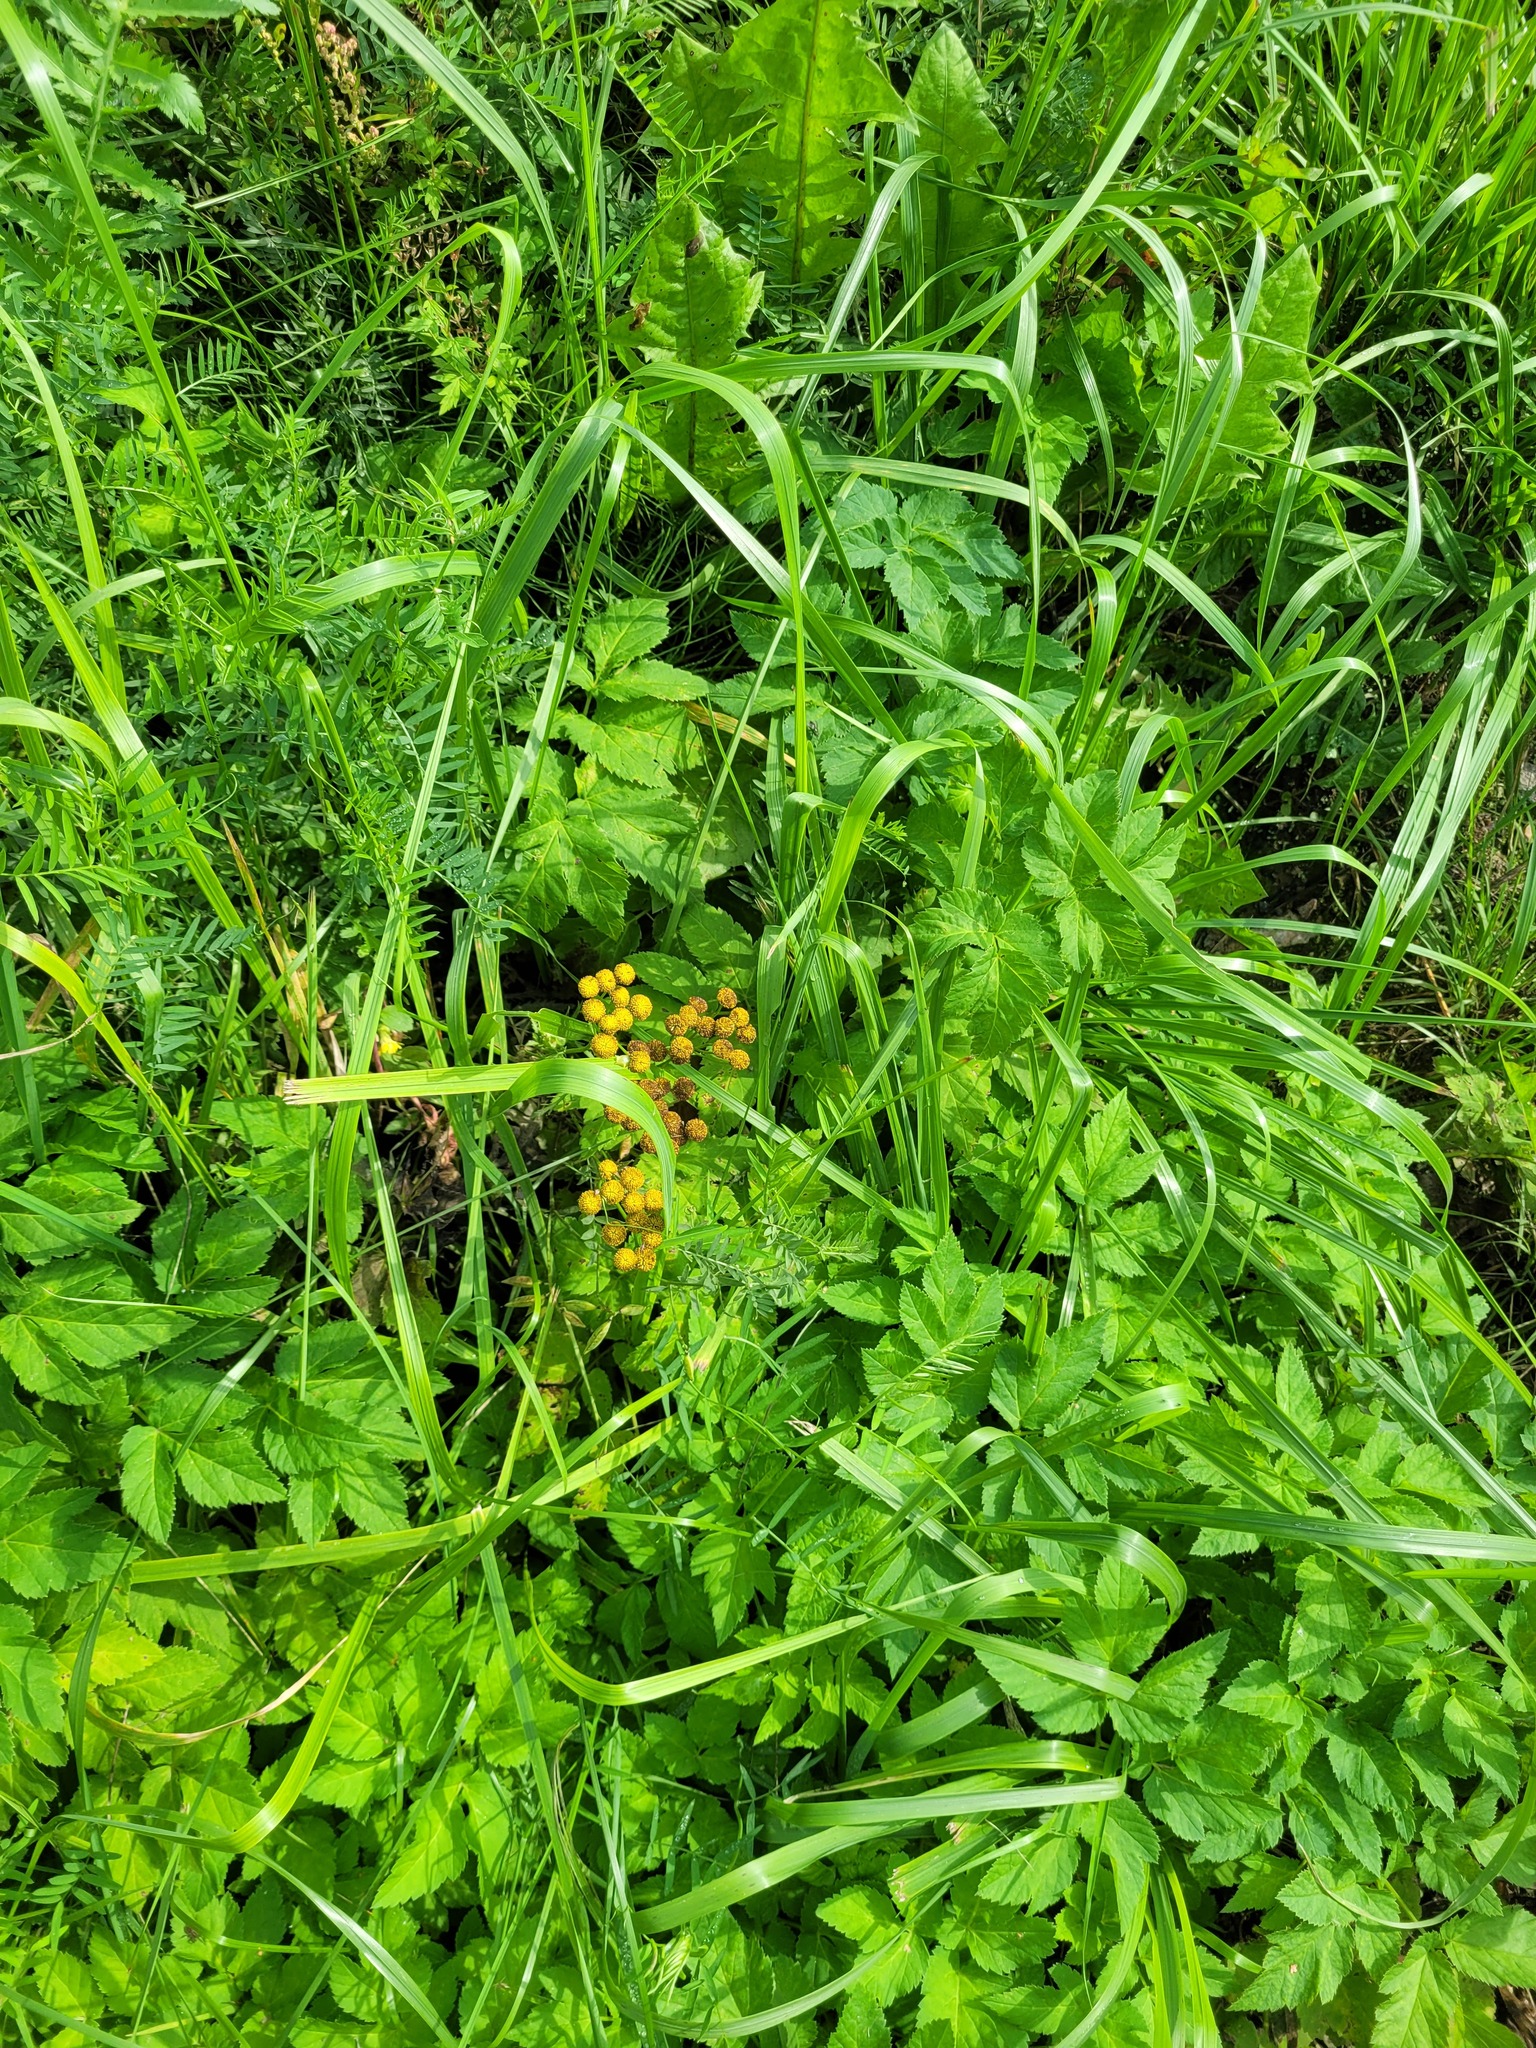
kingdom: Plantae
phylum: Tracheophyta
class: Magnoliopsida
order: Asterales
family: Asteraceae
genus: Tanacetum
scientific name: Tanacetum vulgare
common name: Common tansy
